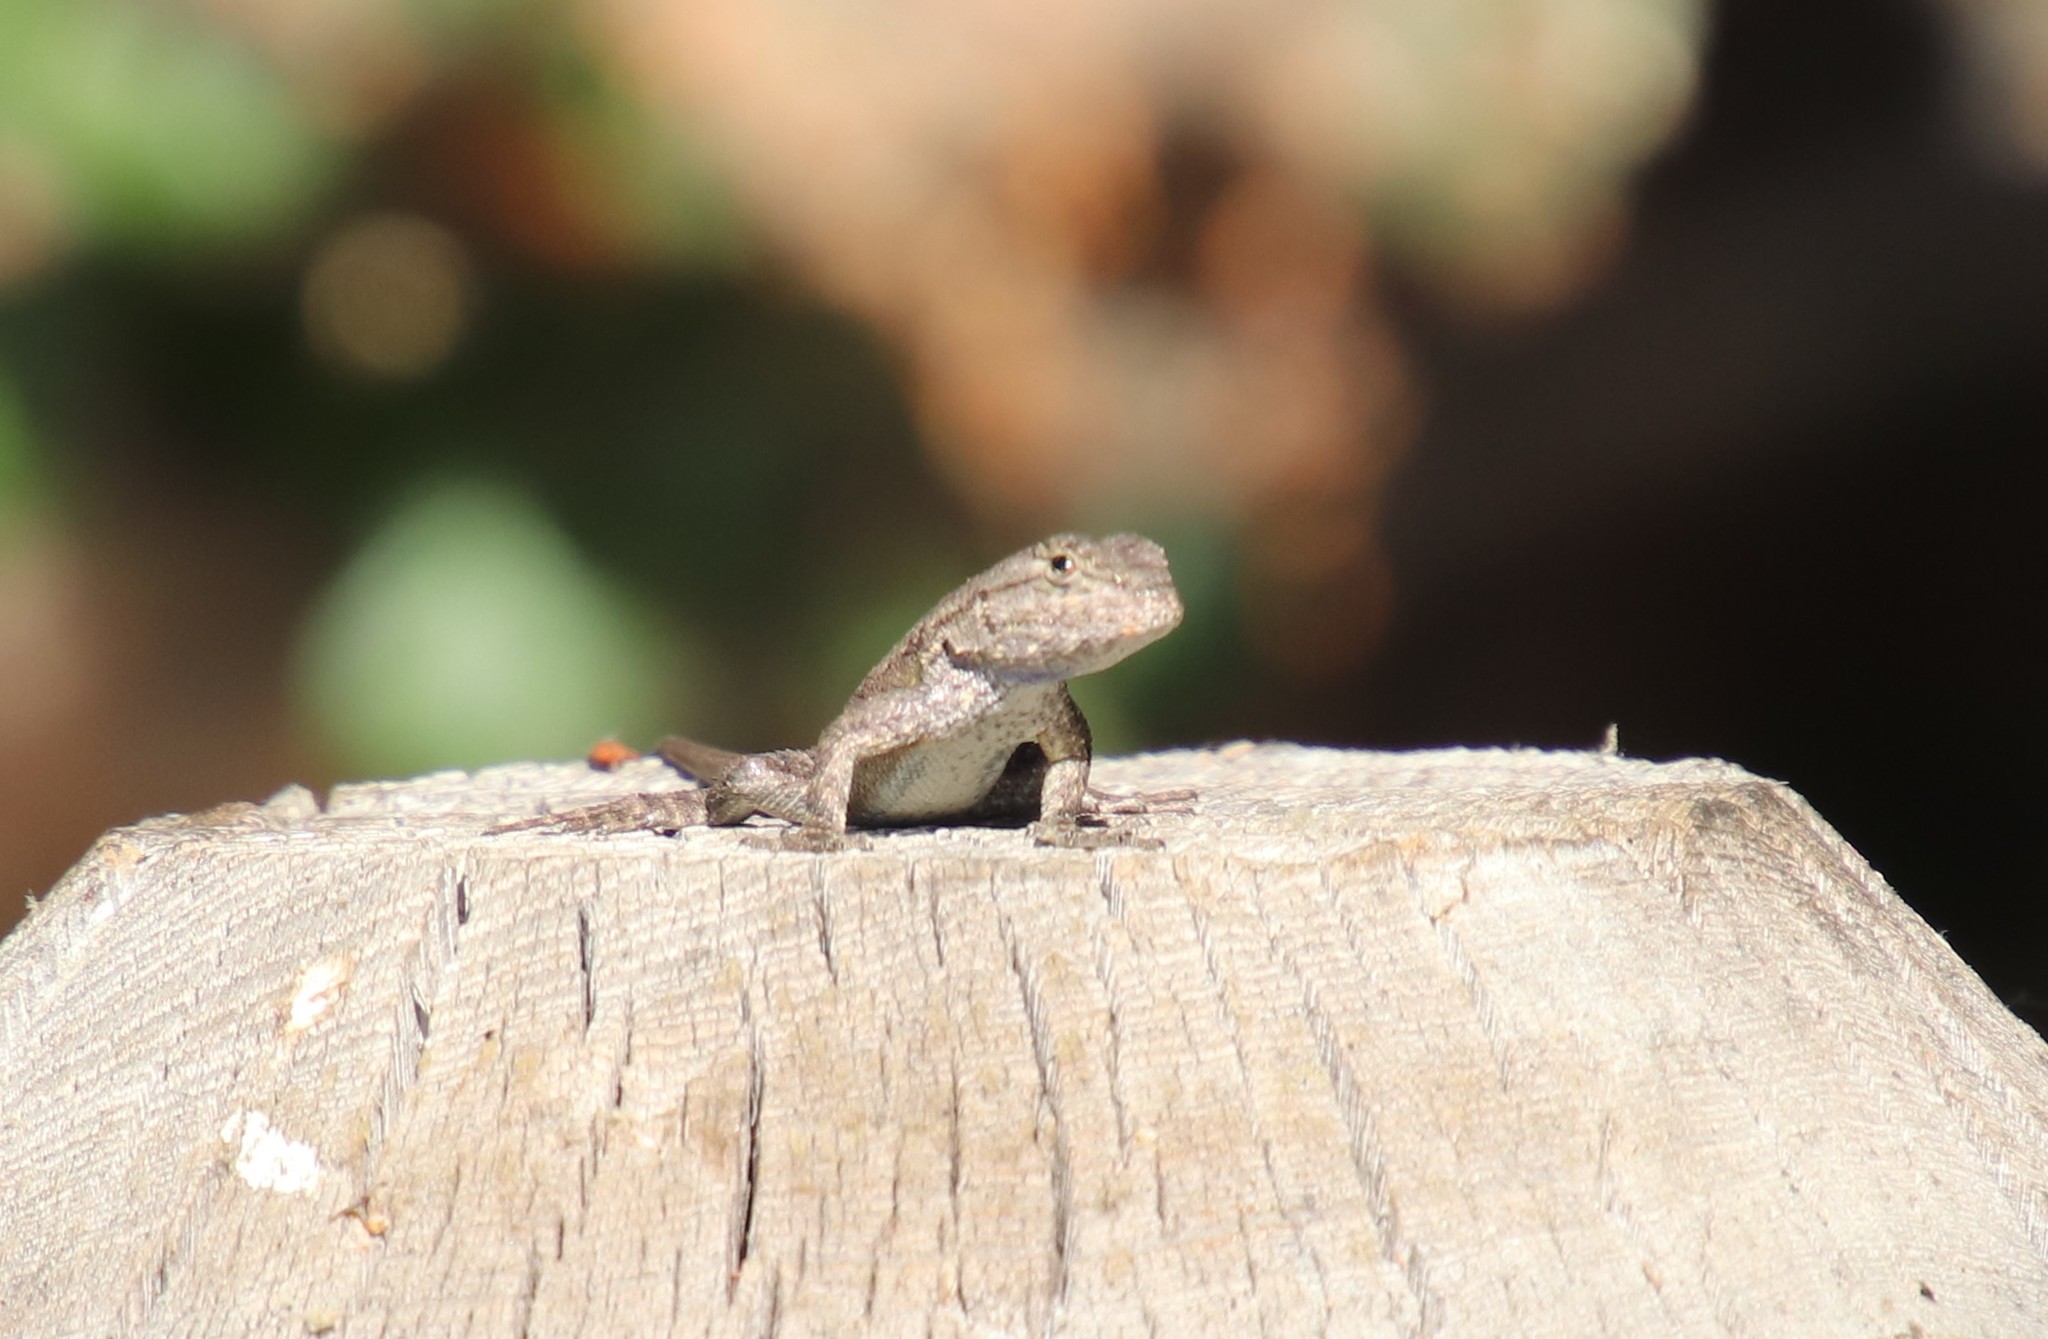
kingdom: Animalia
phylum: Chordata
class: Squamata
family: Phrynosomatidae
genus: Sceloporus
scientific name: Sceloporus occidentalis
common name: Western fence lizard
